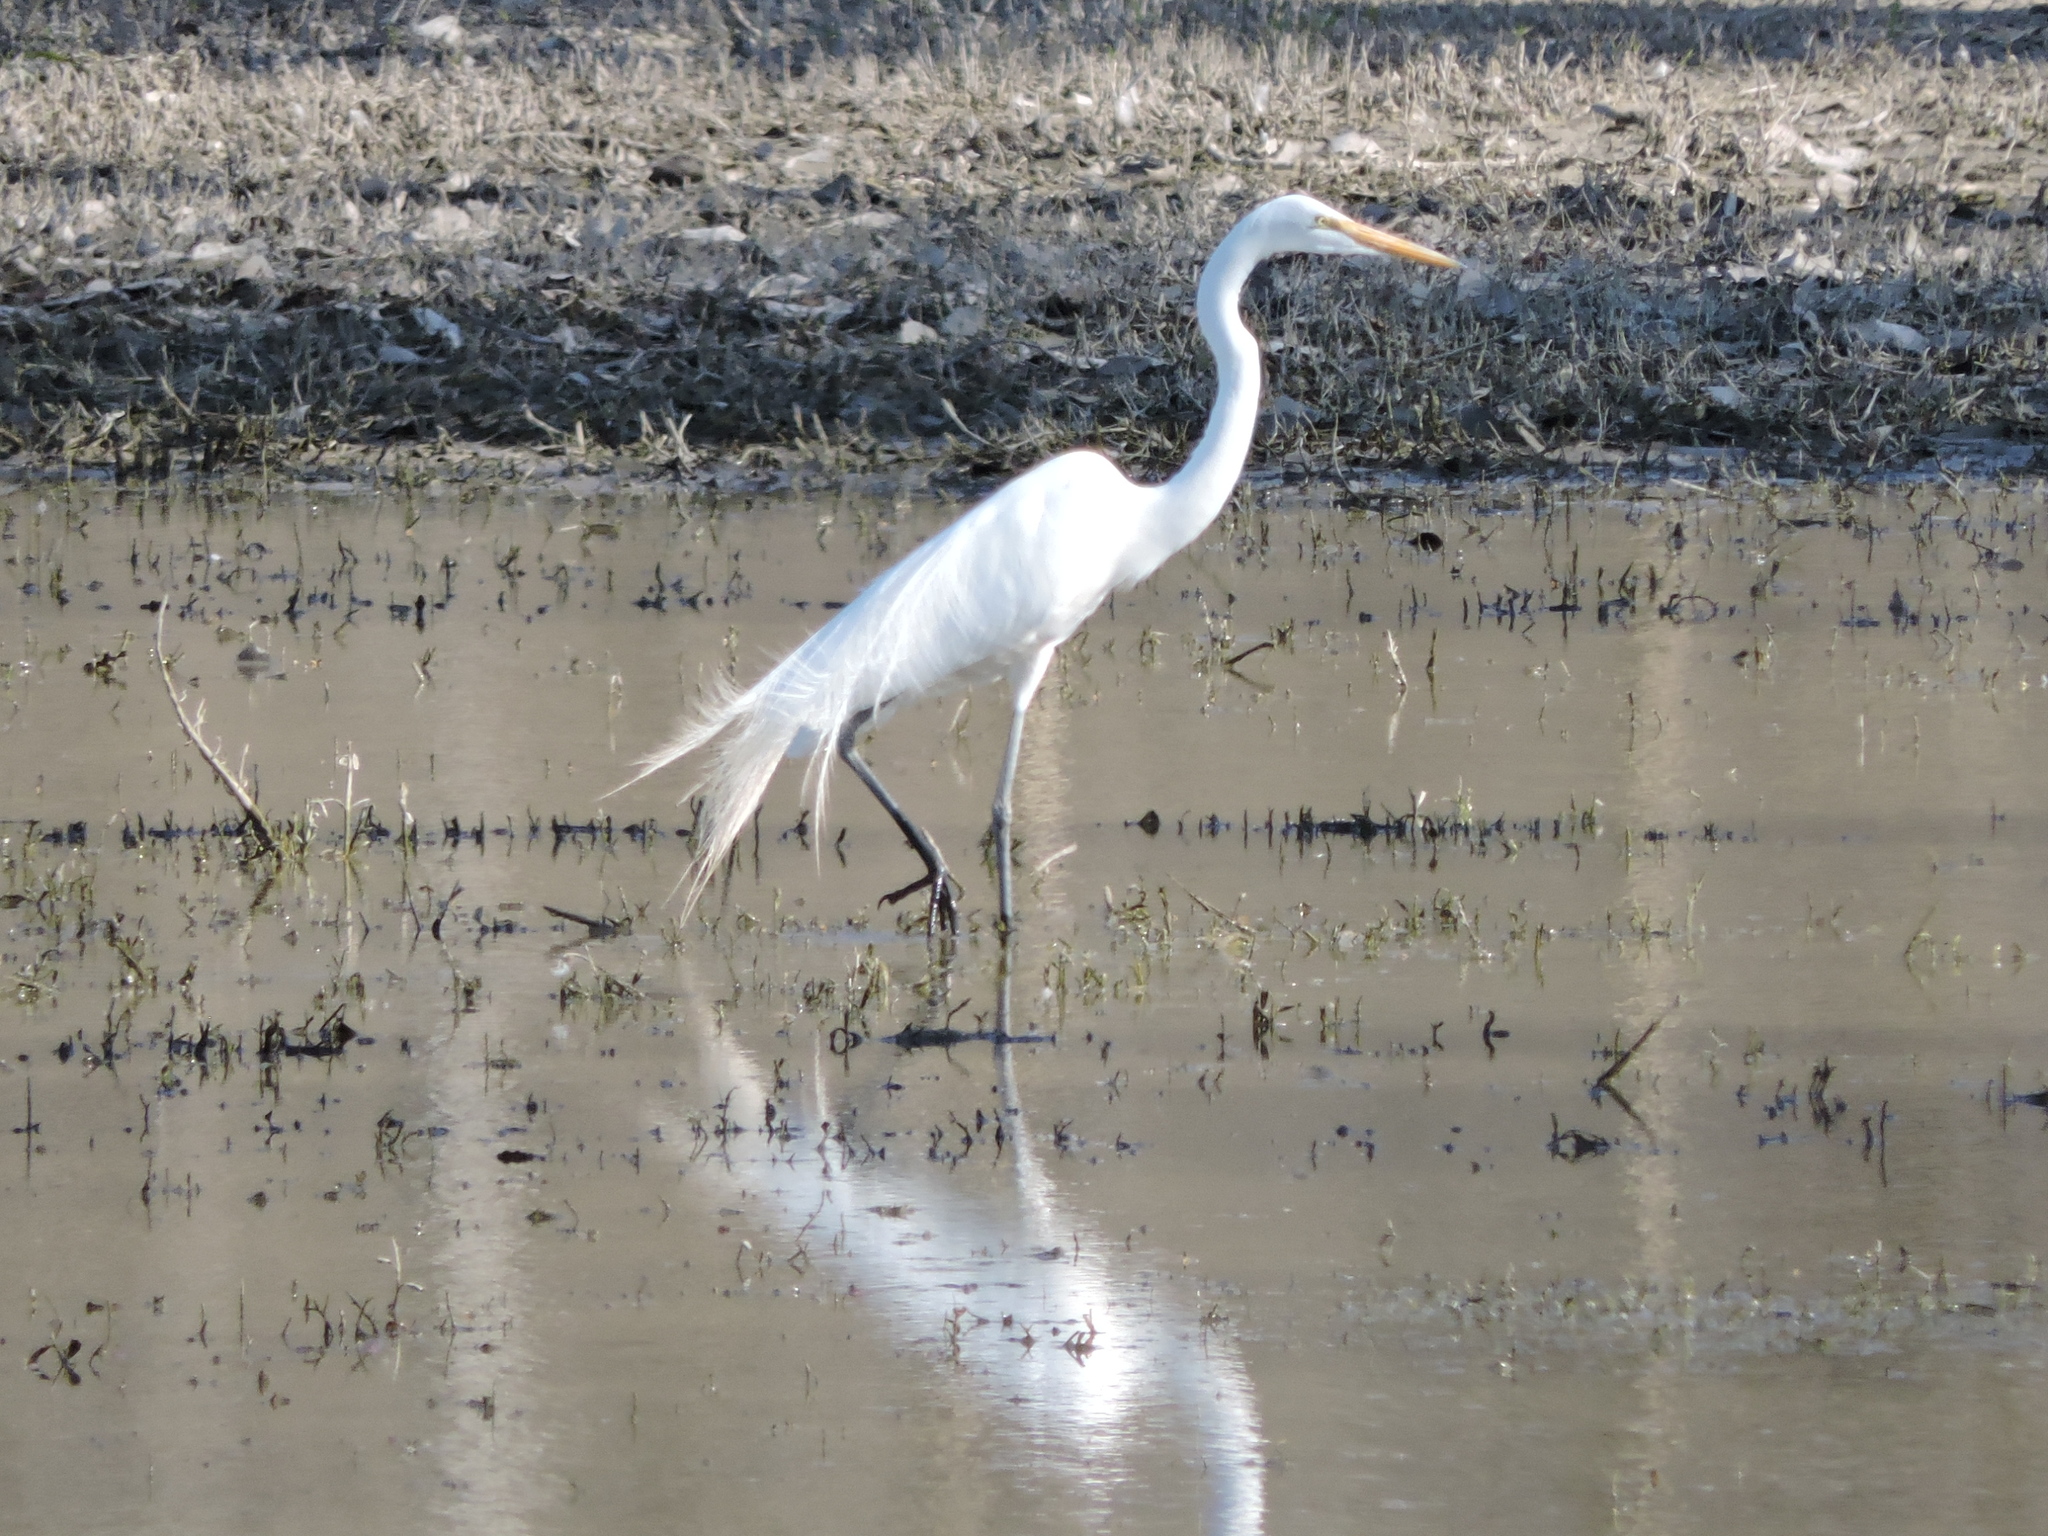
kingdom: Animalia
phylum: Chordata
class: Aves
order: Pelecaniformes
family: Ardeidae
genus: Ardea
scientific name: Ardea alba
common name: Great egret
